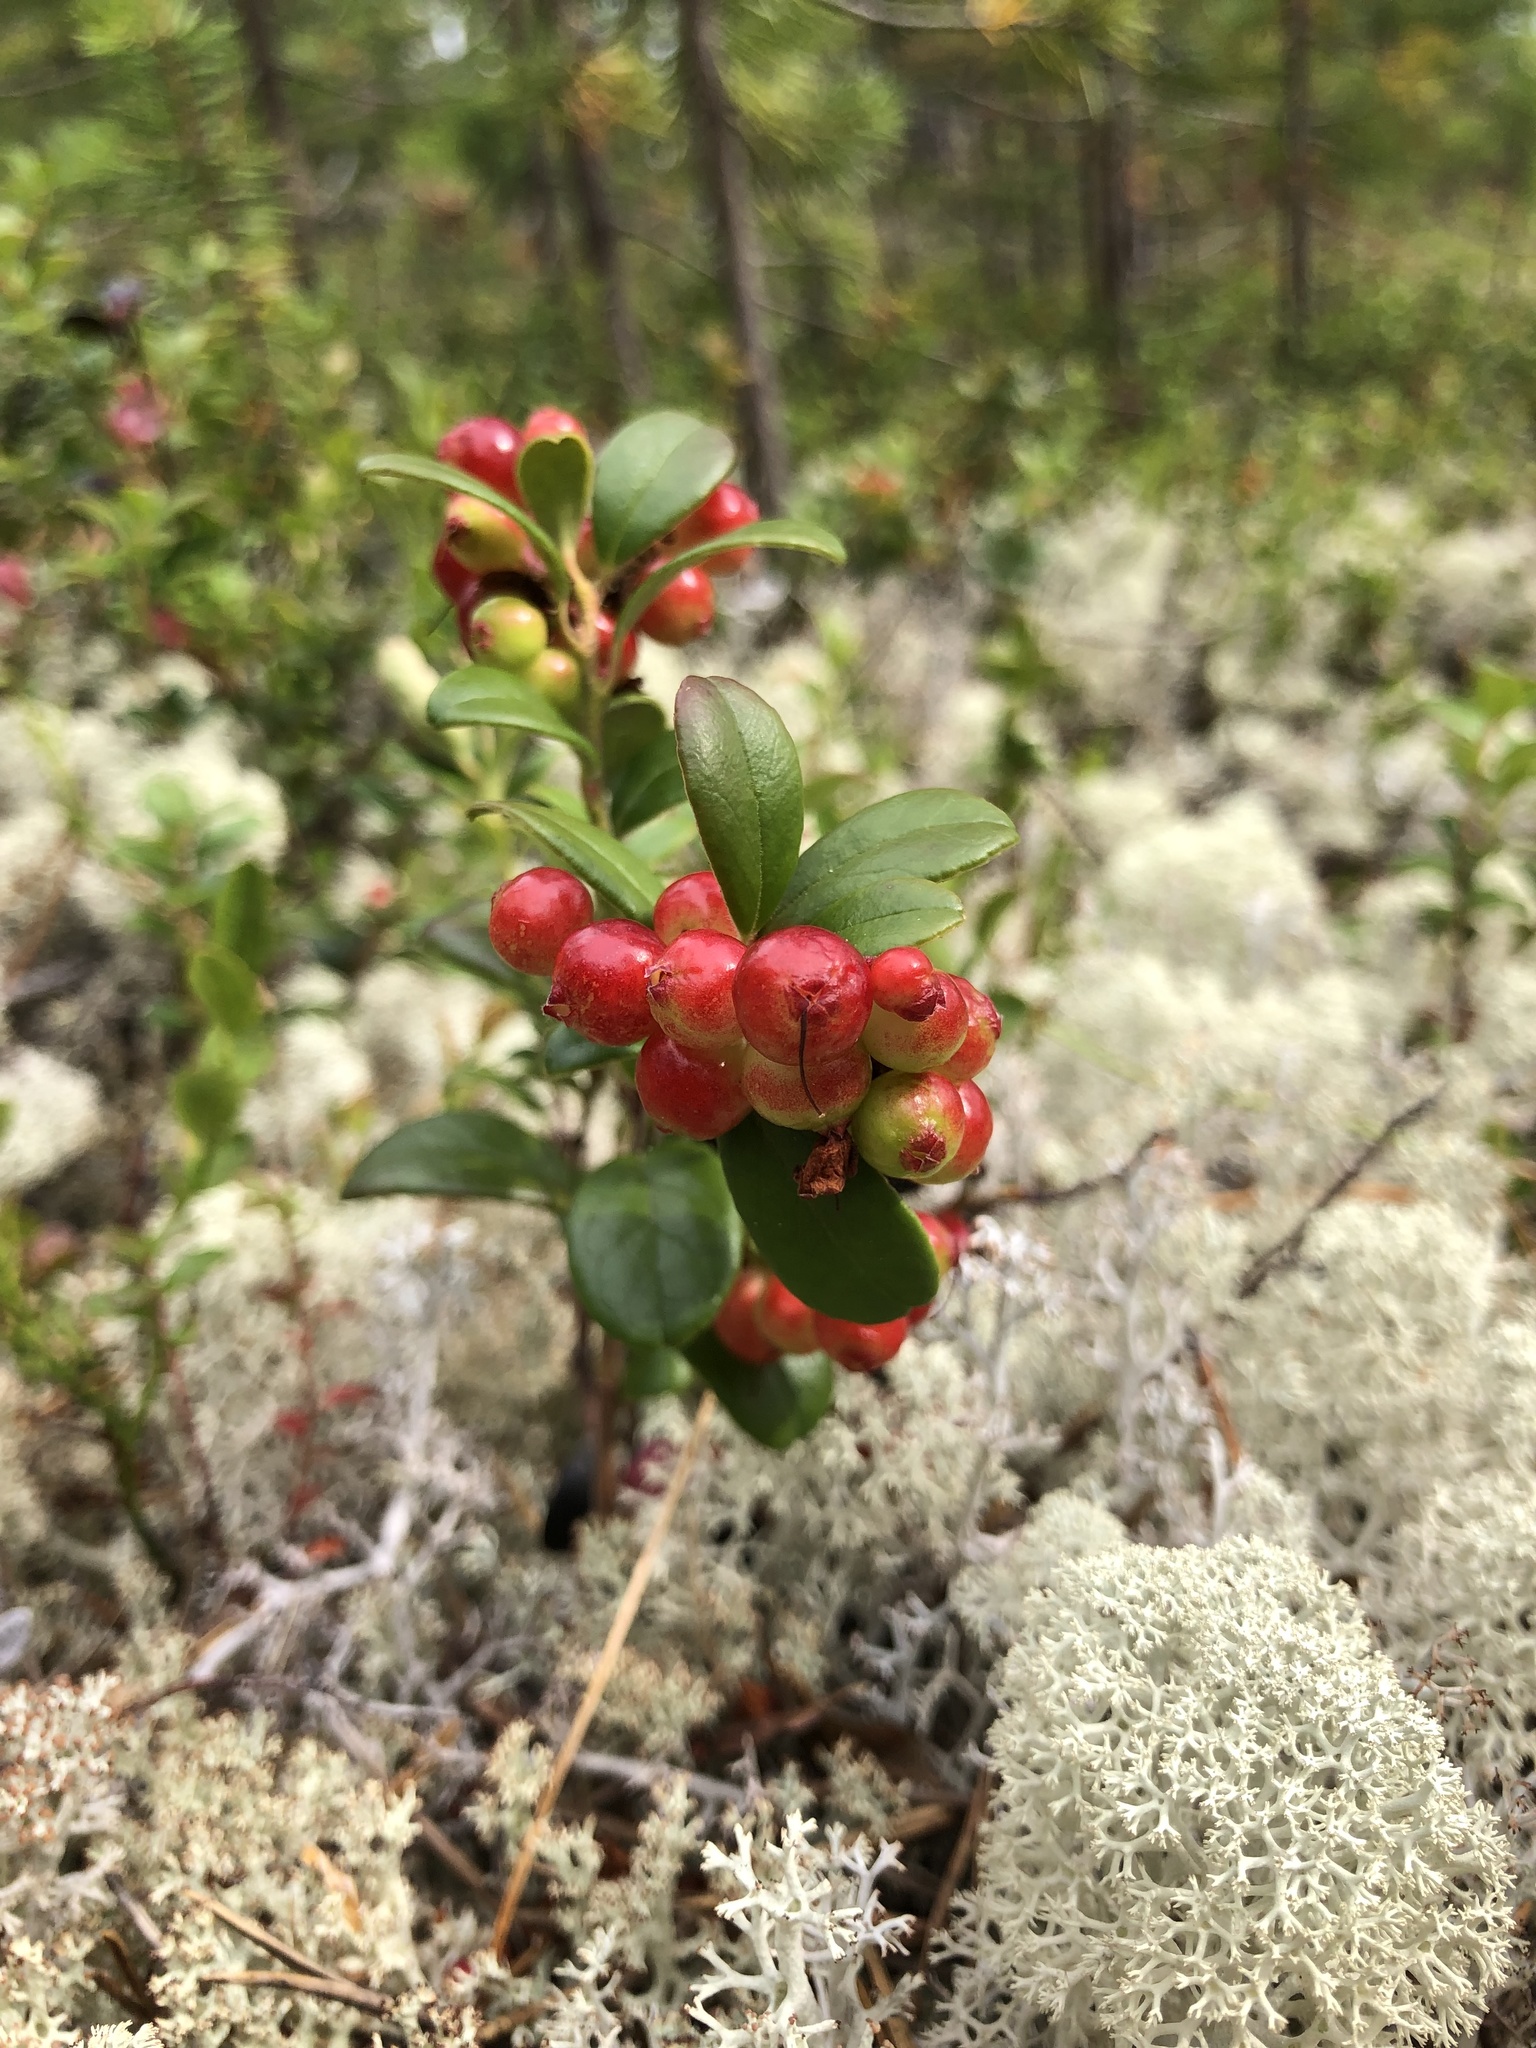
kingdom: Plantae
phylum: Tracheophyta
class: Magnoliopsida
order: Ericales
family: Ericaceae
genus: Vaccinium
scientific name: Vaccinium vitis-idaea
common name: Cowberry
